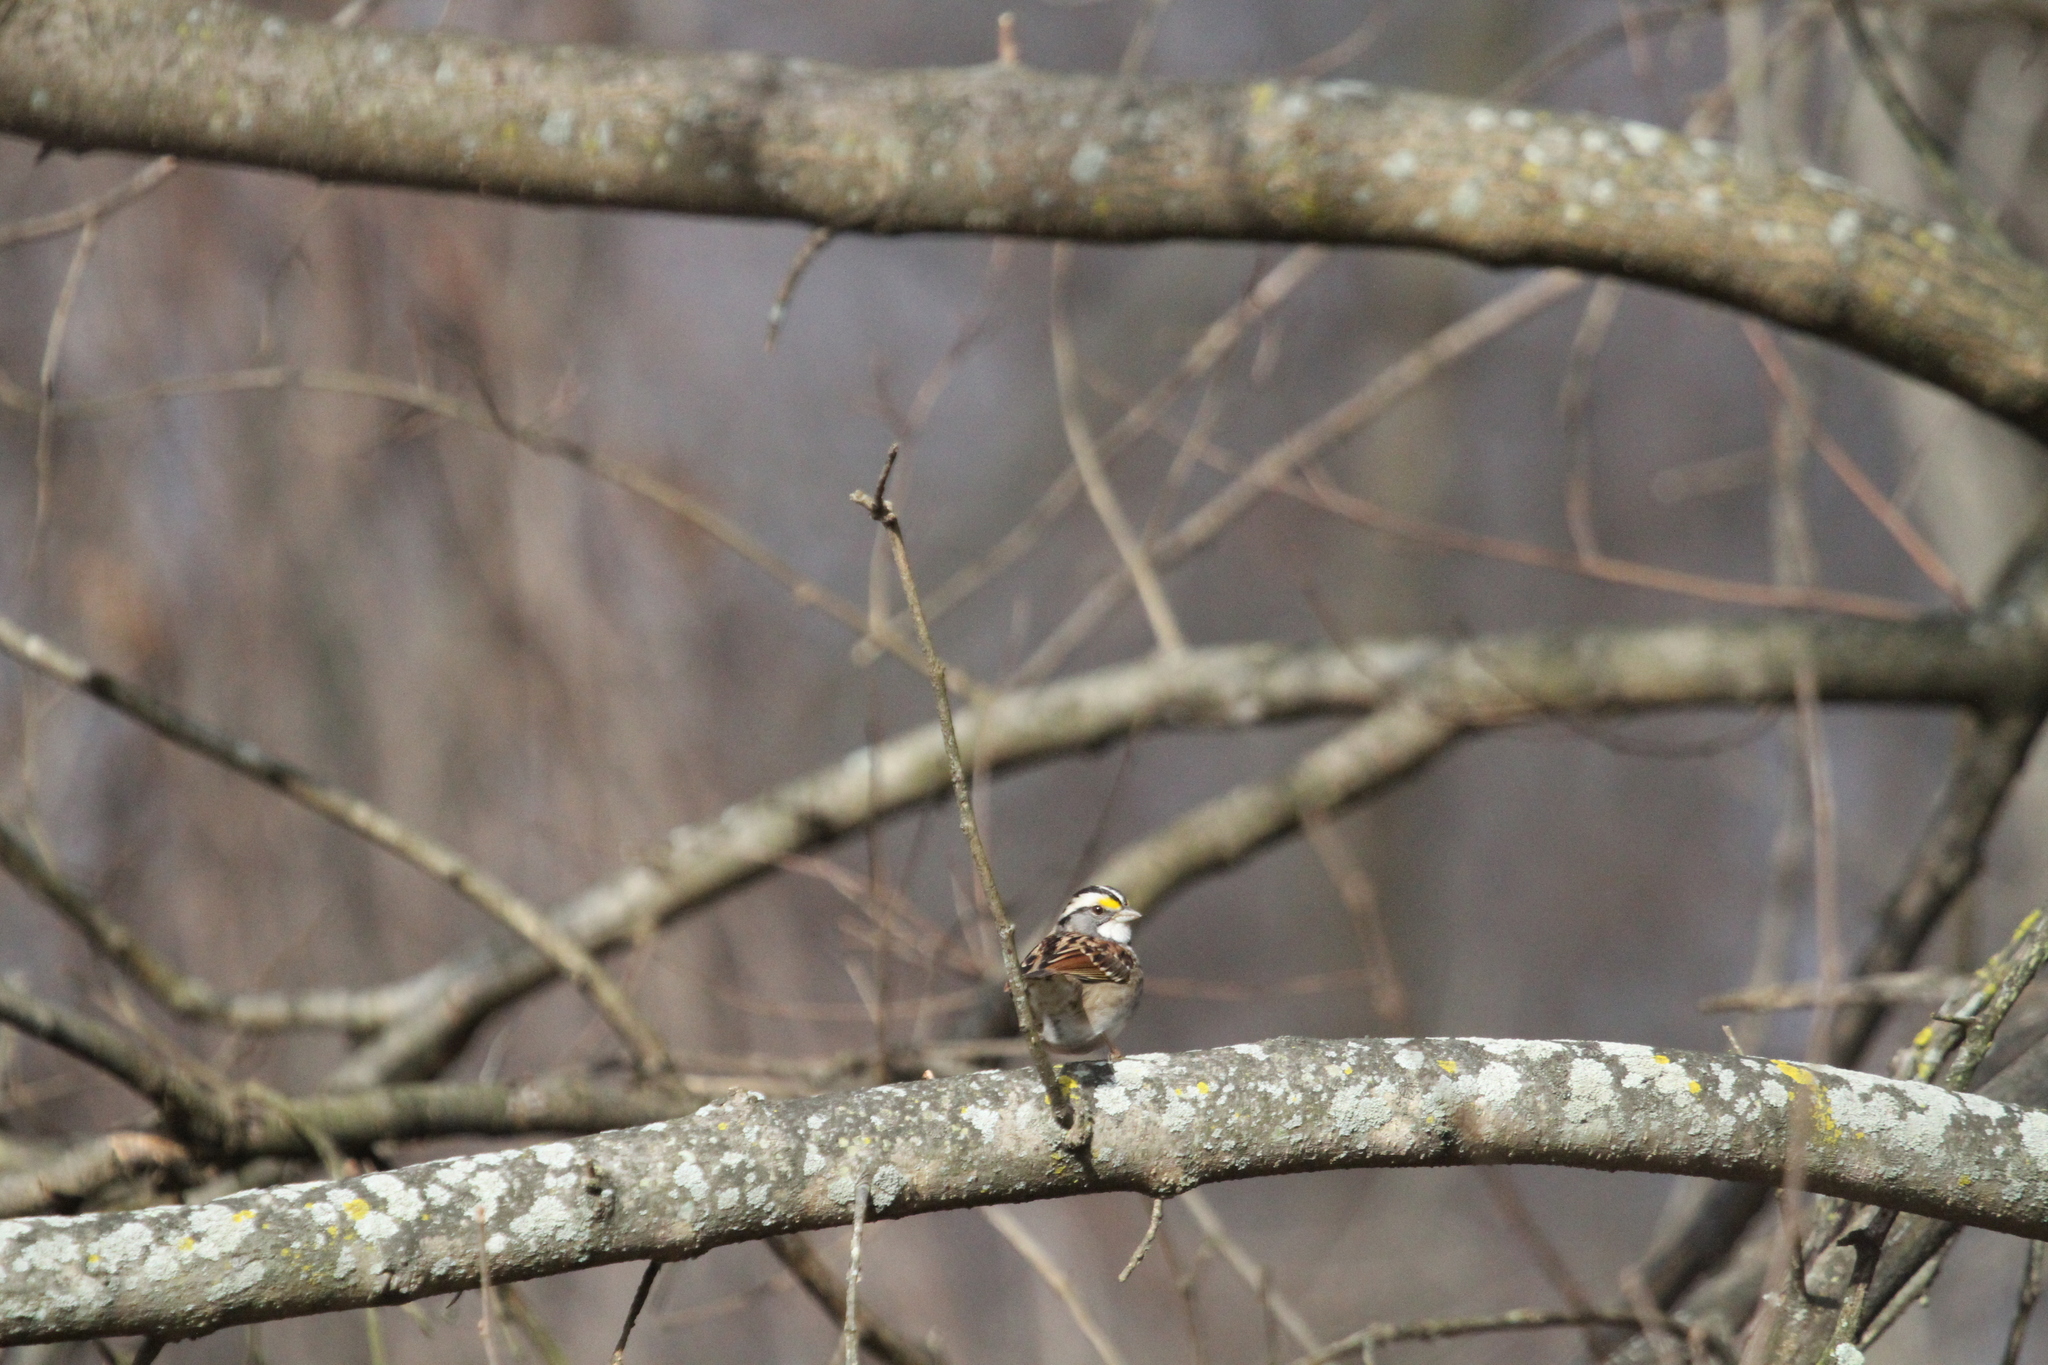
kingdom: Animalia
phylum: Chordata
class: Aves
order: Passeriformes
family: Passerellidae
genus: Zonotrichia
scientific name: Zonotrichia albicollis
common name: White-throated sparrow
